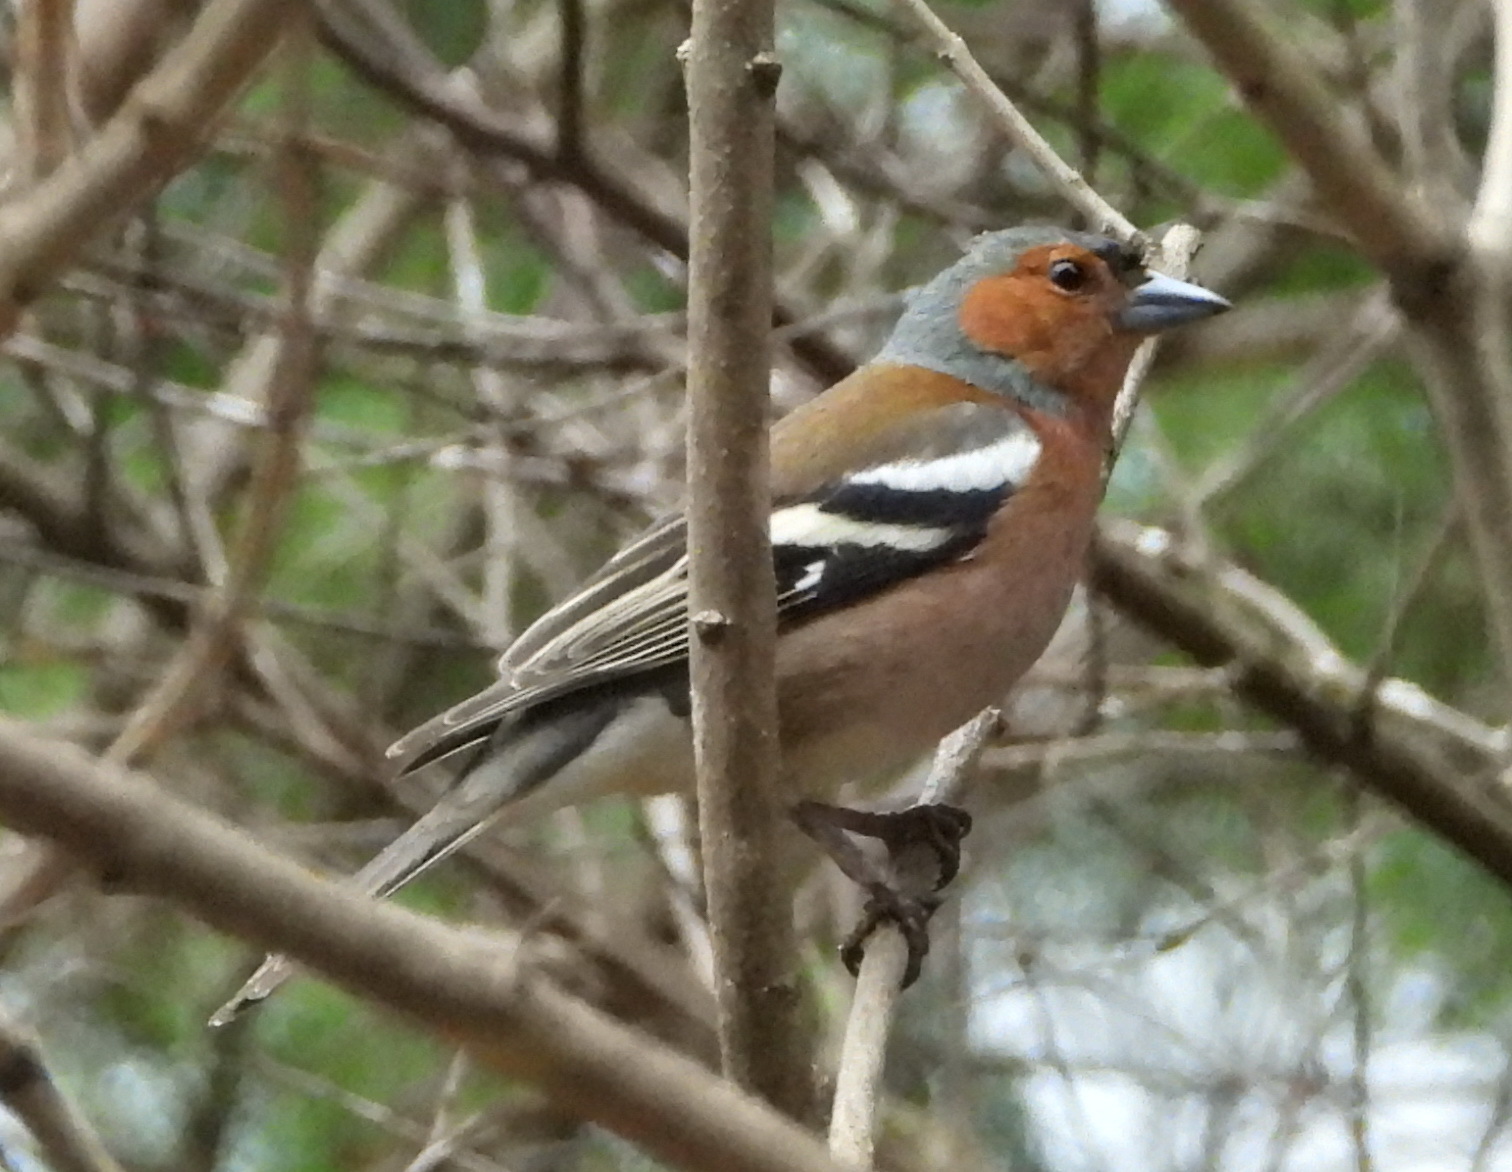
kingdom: Animalia
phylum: Chordata
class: Aves
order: Passeriformes
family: Fringillidae
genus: Fringilla
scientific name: Fringilla coelebs
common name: Common chaffinch
